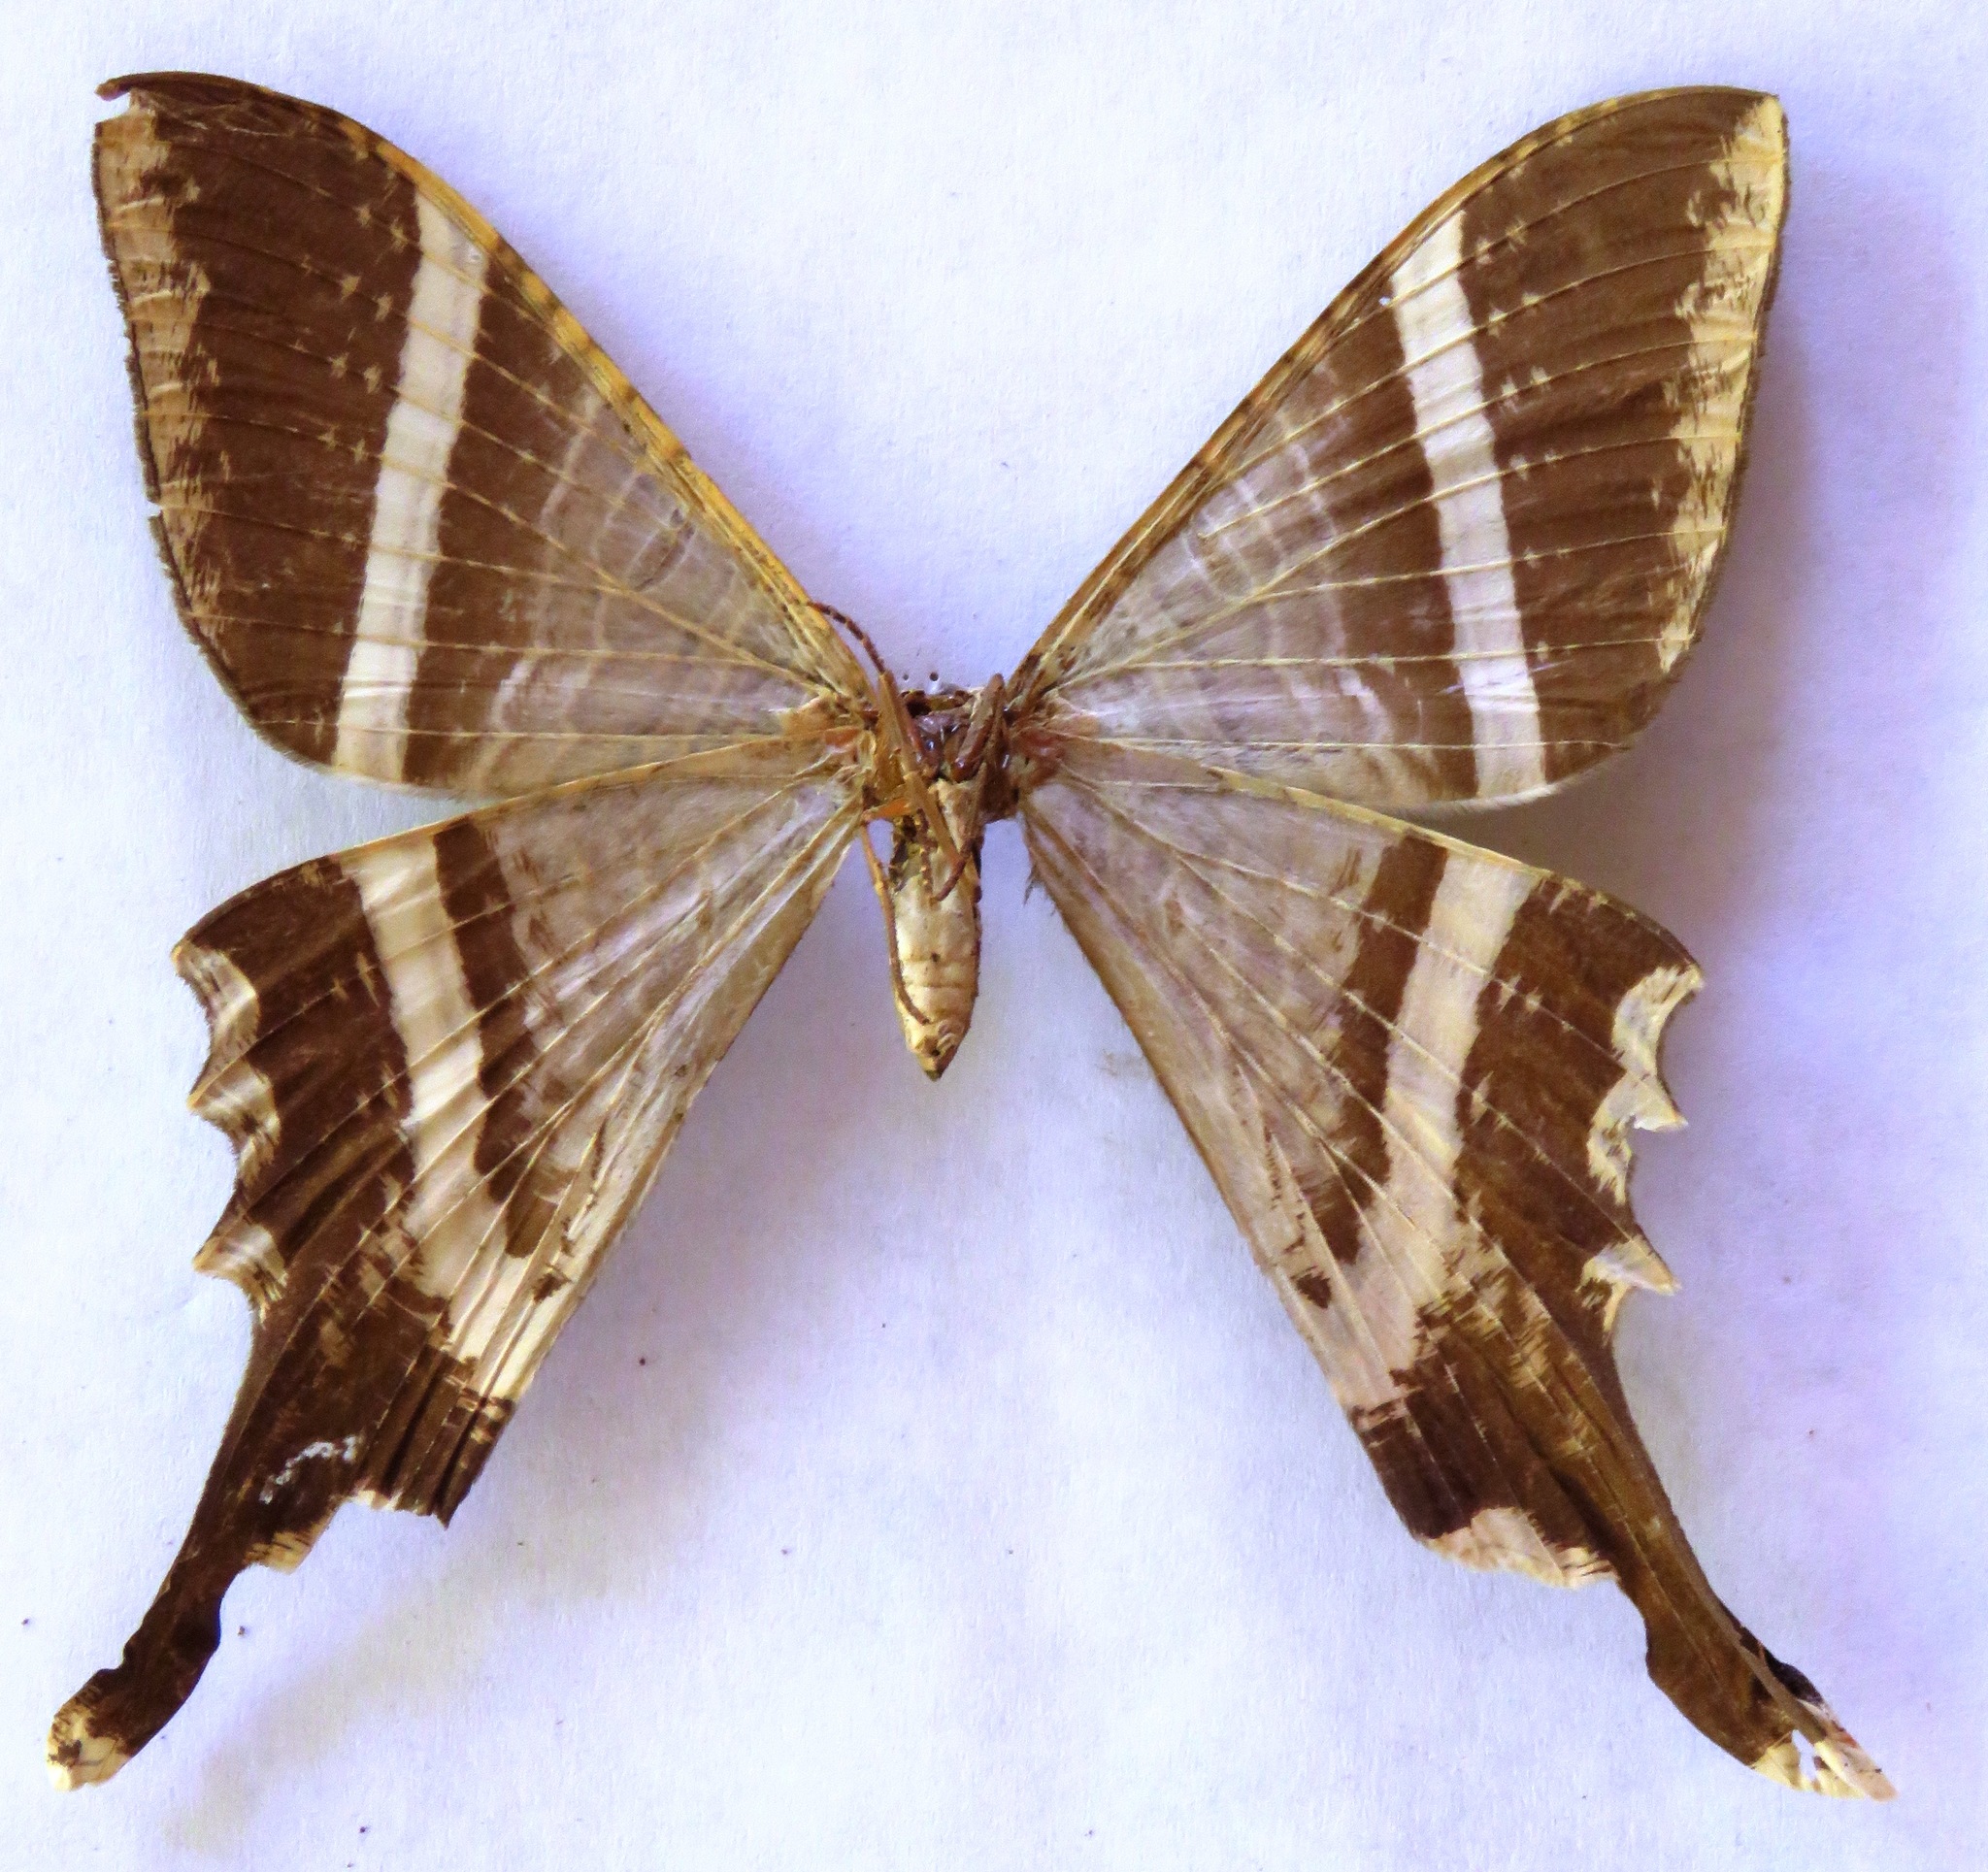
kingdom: Animalia
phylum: Arthropoda
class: Insecta
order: Lepidoptera
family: Sematuridae
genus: Nothus
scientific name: Nothus lunus
